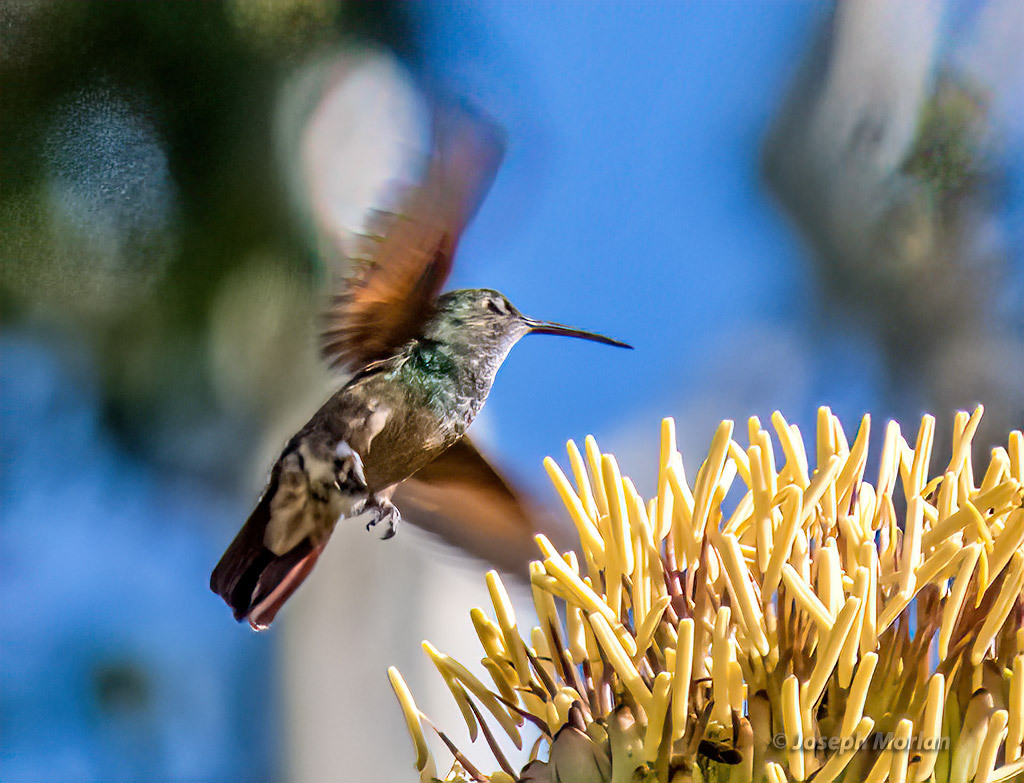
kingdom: Animalia
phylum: Chordata
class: Aves
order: Apodiformes
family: Trochilidae
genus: Saucerottia
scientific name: Saucerottia beryllina
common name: Berylline hummingbird
